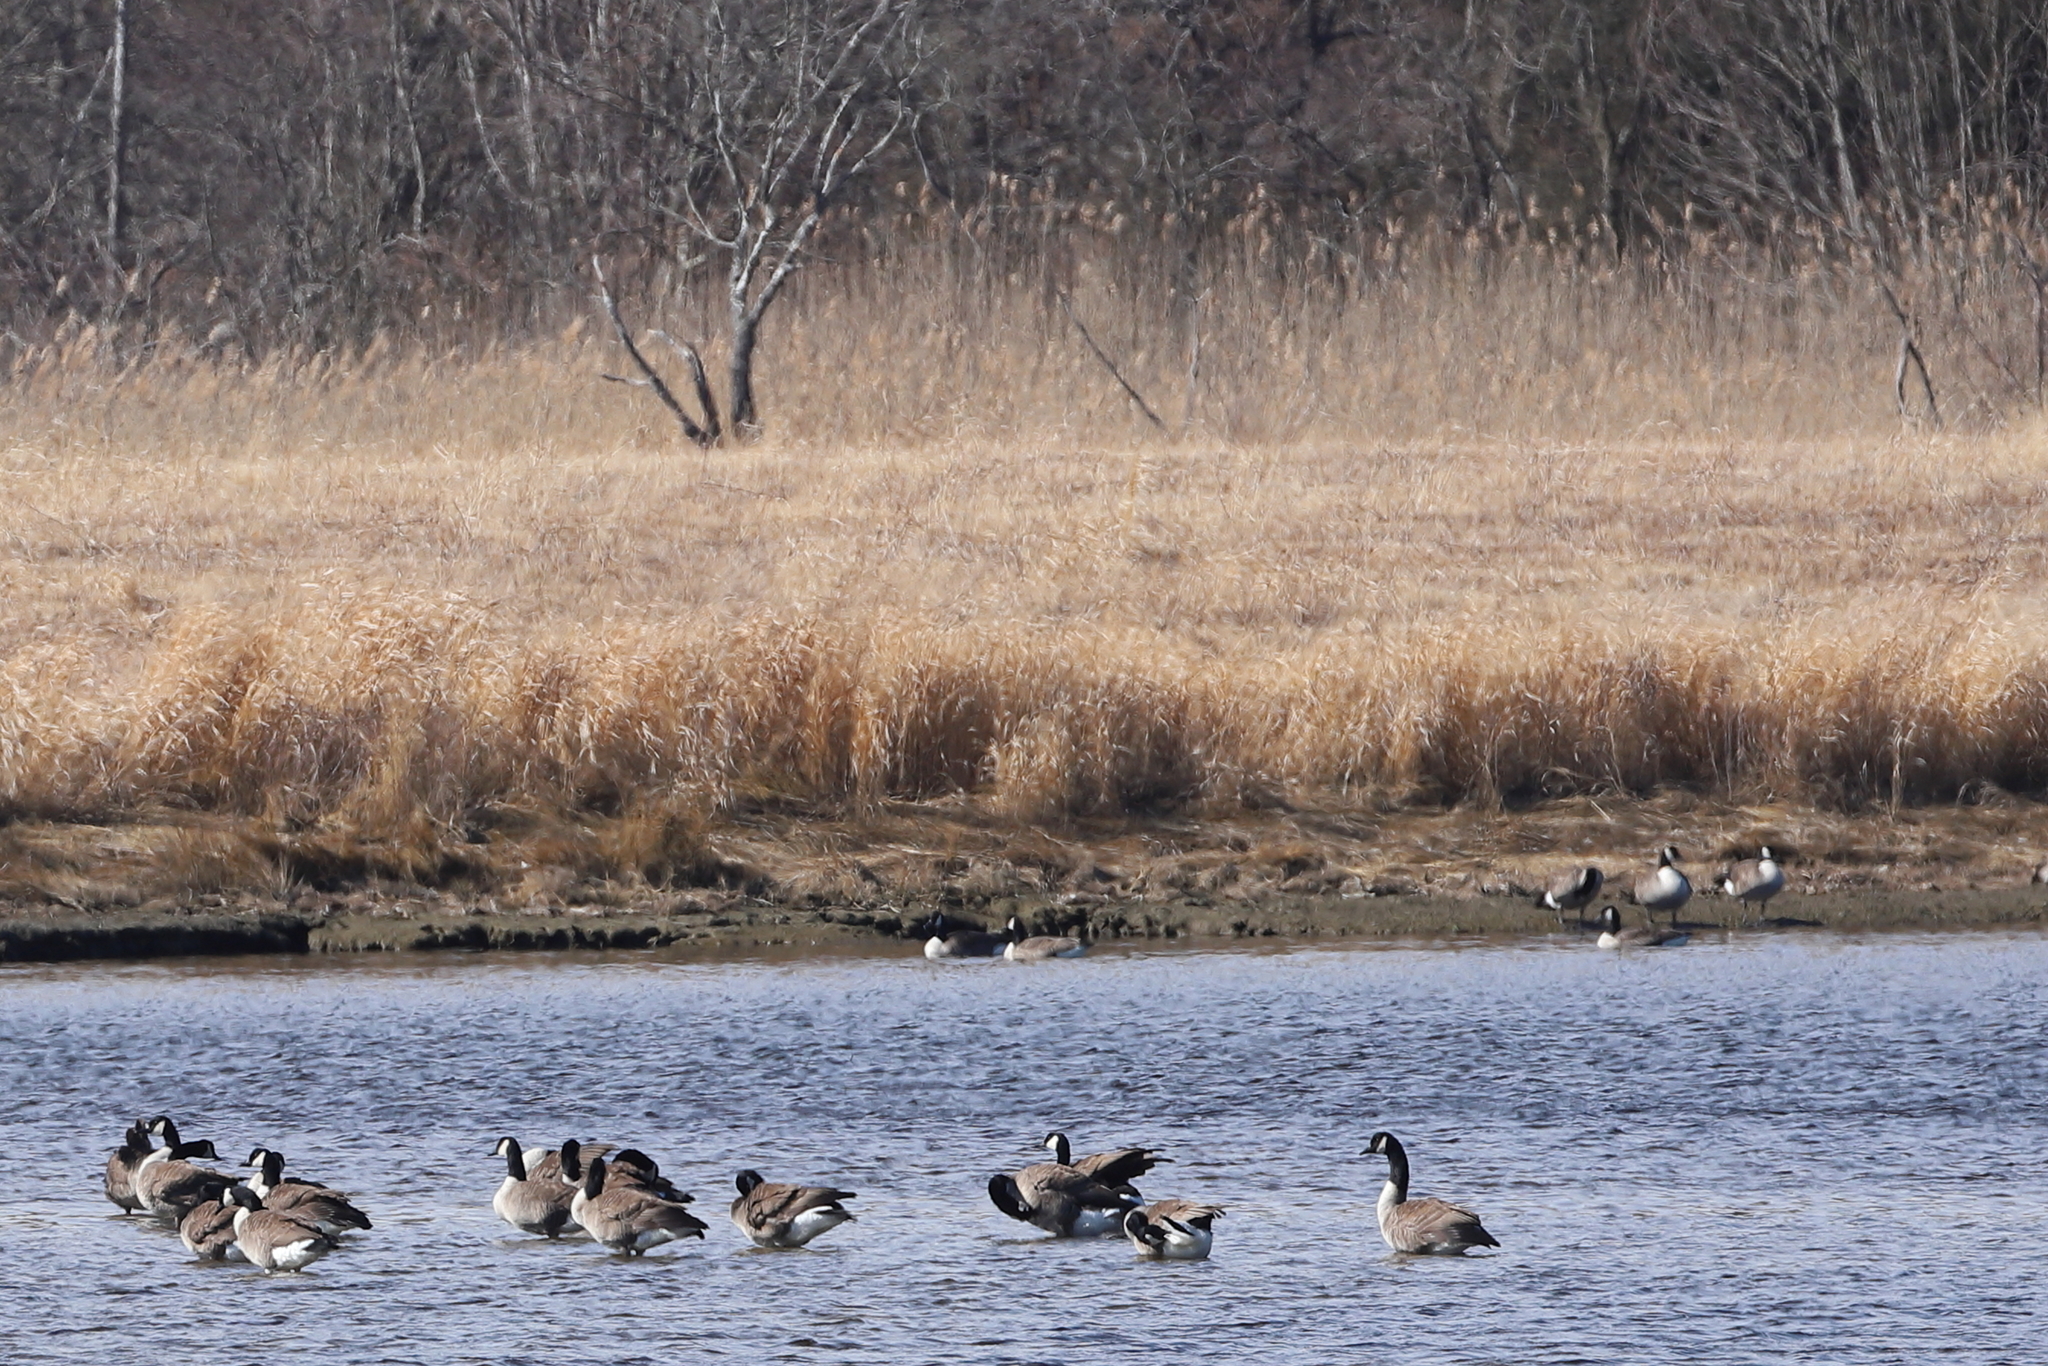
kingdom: Animalia
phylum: Chordata
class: Aves
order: Anseriformes
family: Anatidae
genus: Branta
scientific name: Branta canadensis
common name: Canada goose
